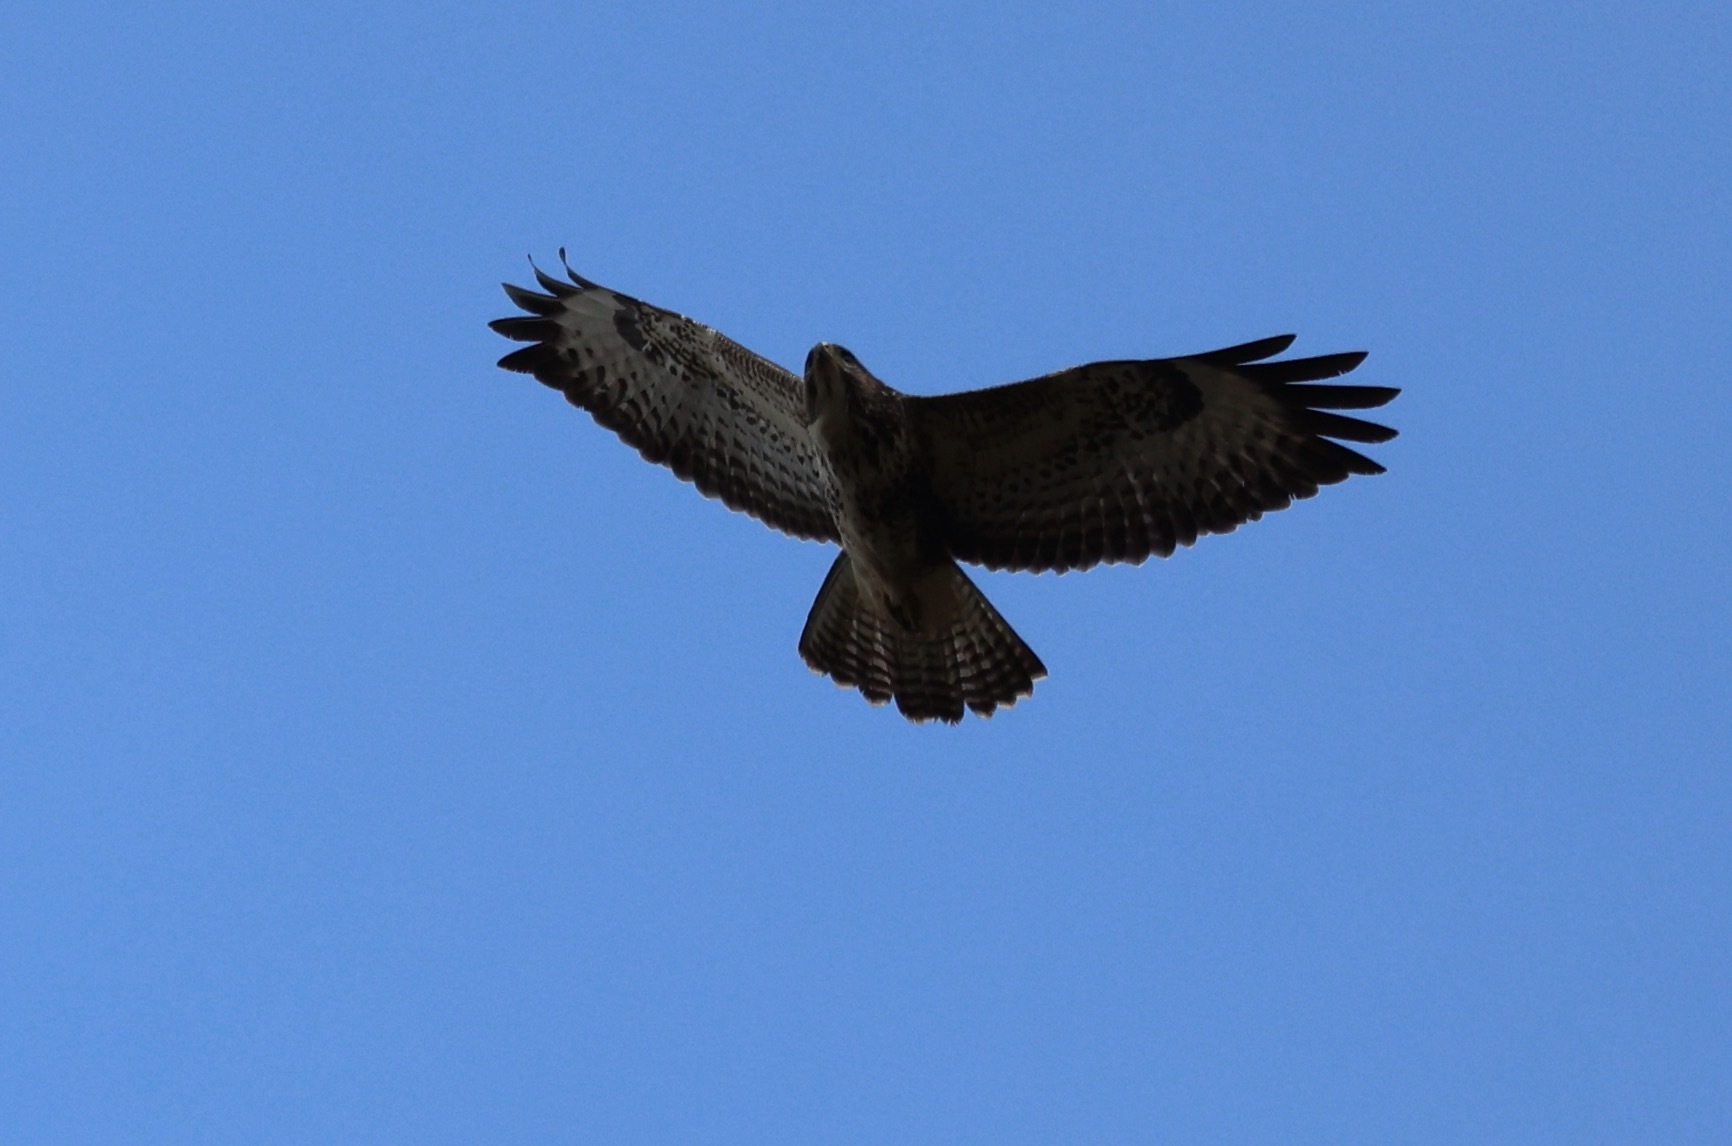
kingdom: Animalia
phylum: Chordata
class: Aves
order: Accipitriformes
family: Accipitridae
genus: Buteo
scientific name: Buteo buteo
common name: Common buzzard
